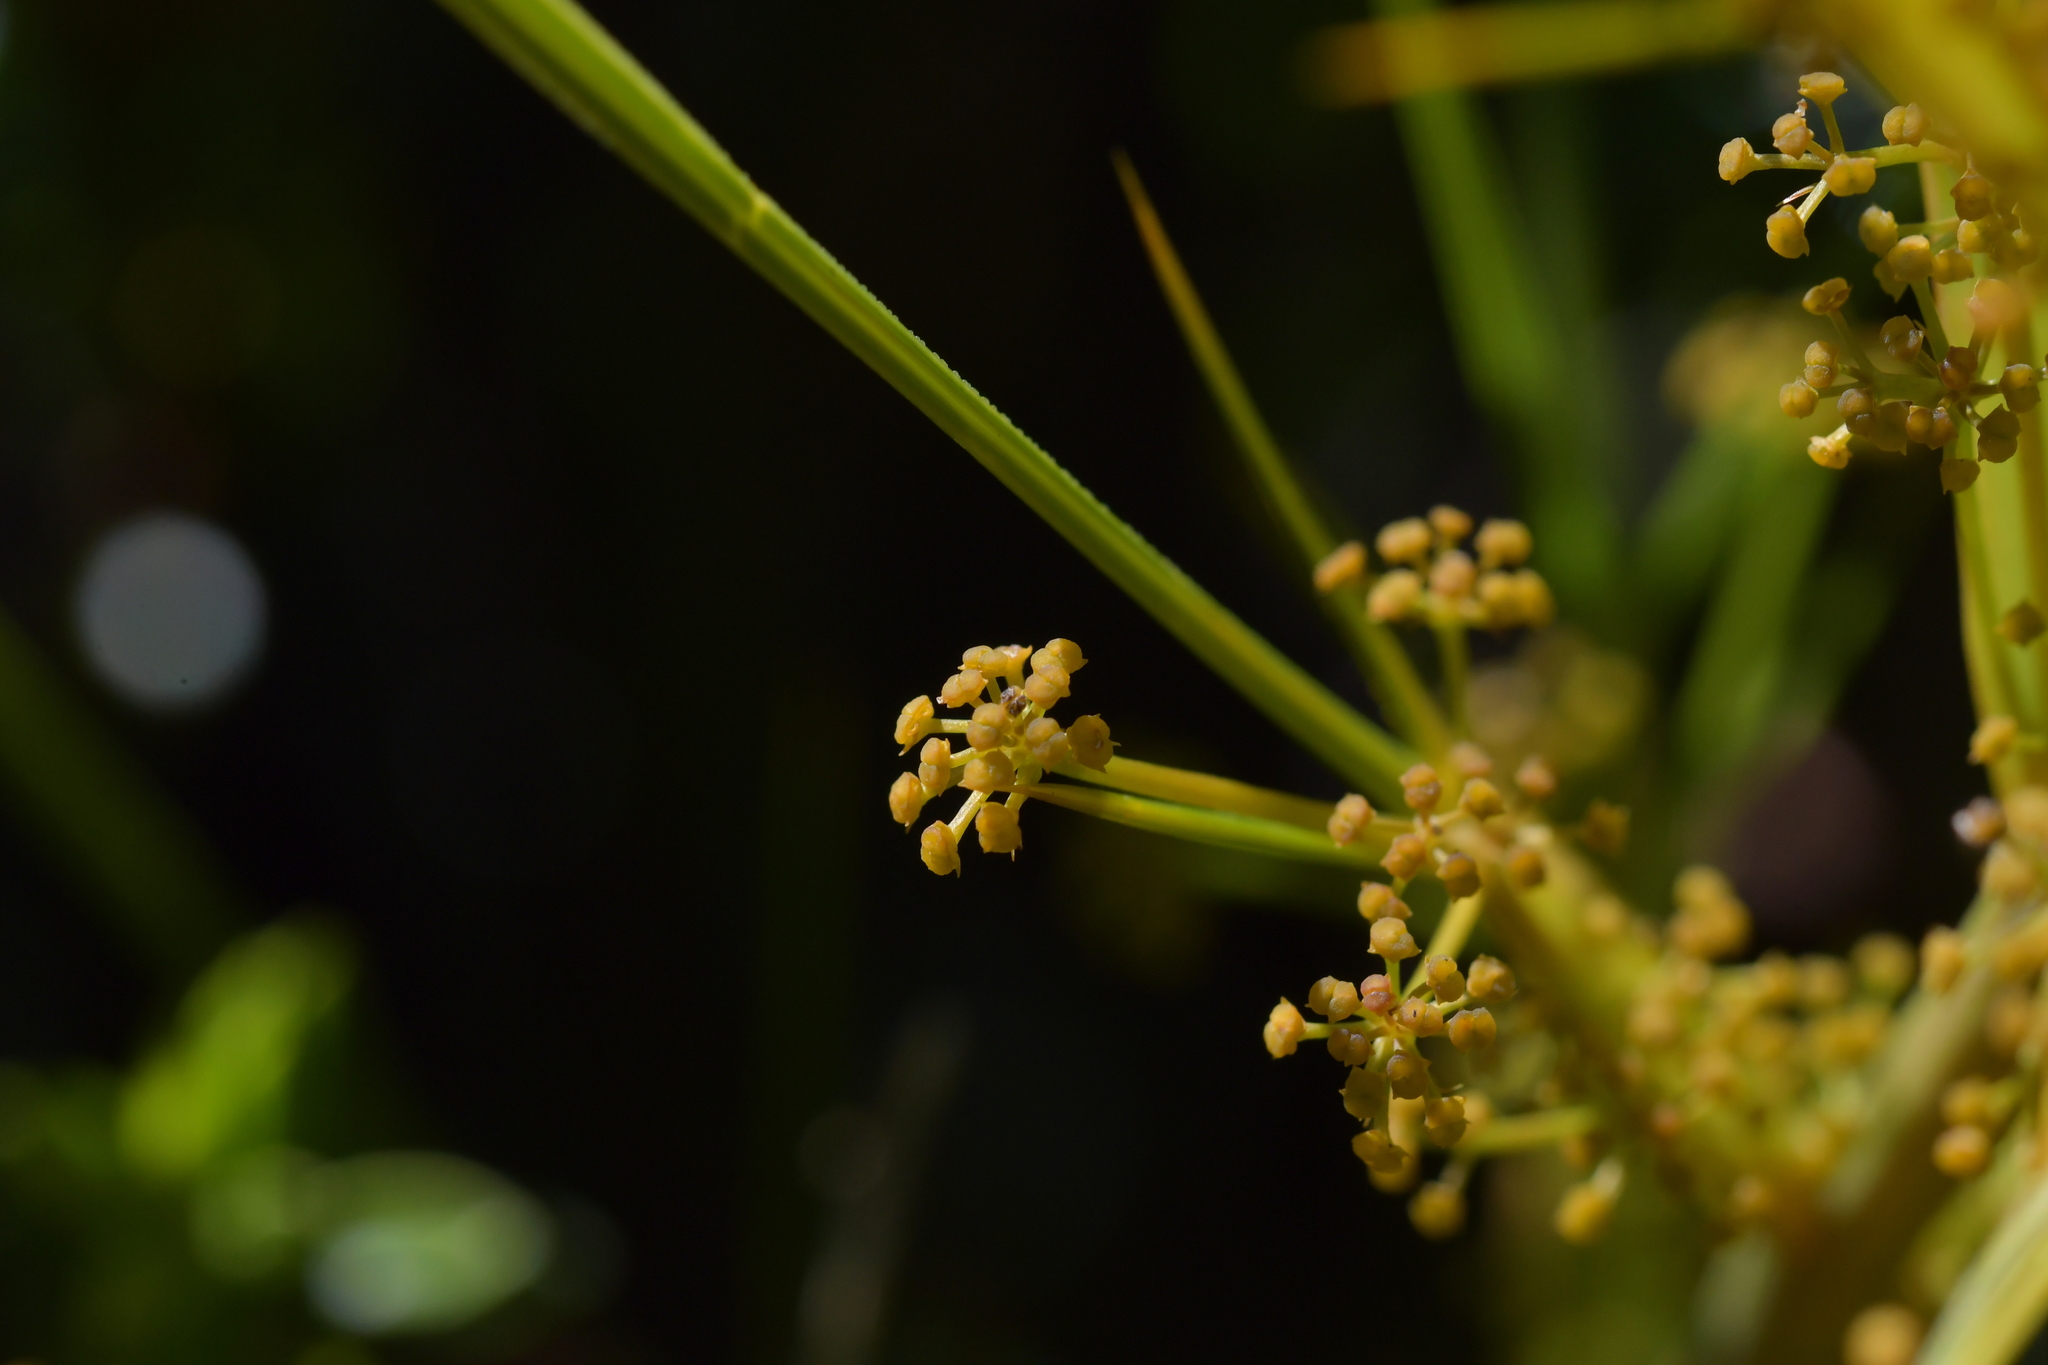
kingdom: Plantae
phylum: Tracheophyta
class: Magnoliopsida
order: Apiales
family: Apiaceae
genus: Aciphylla
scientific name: Aciphylla crenulata
